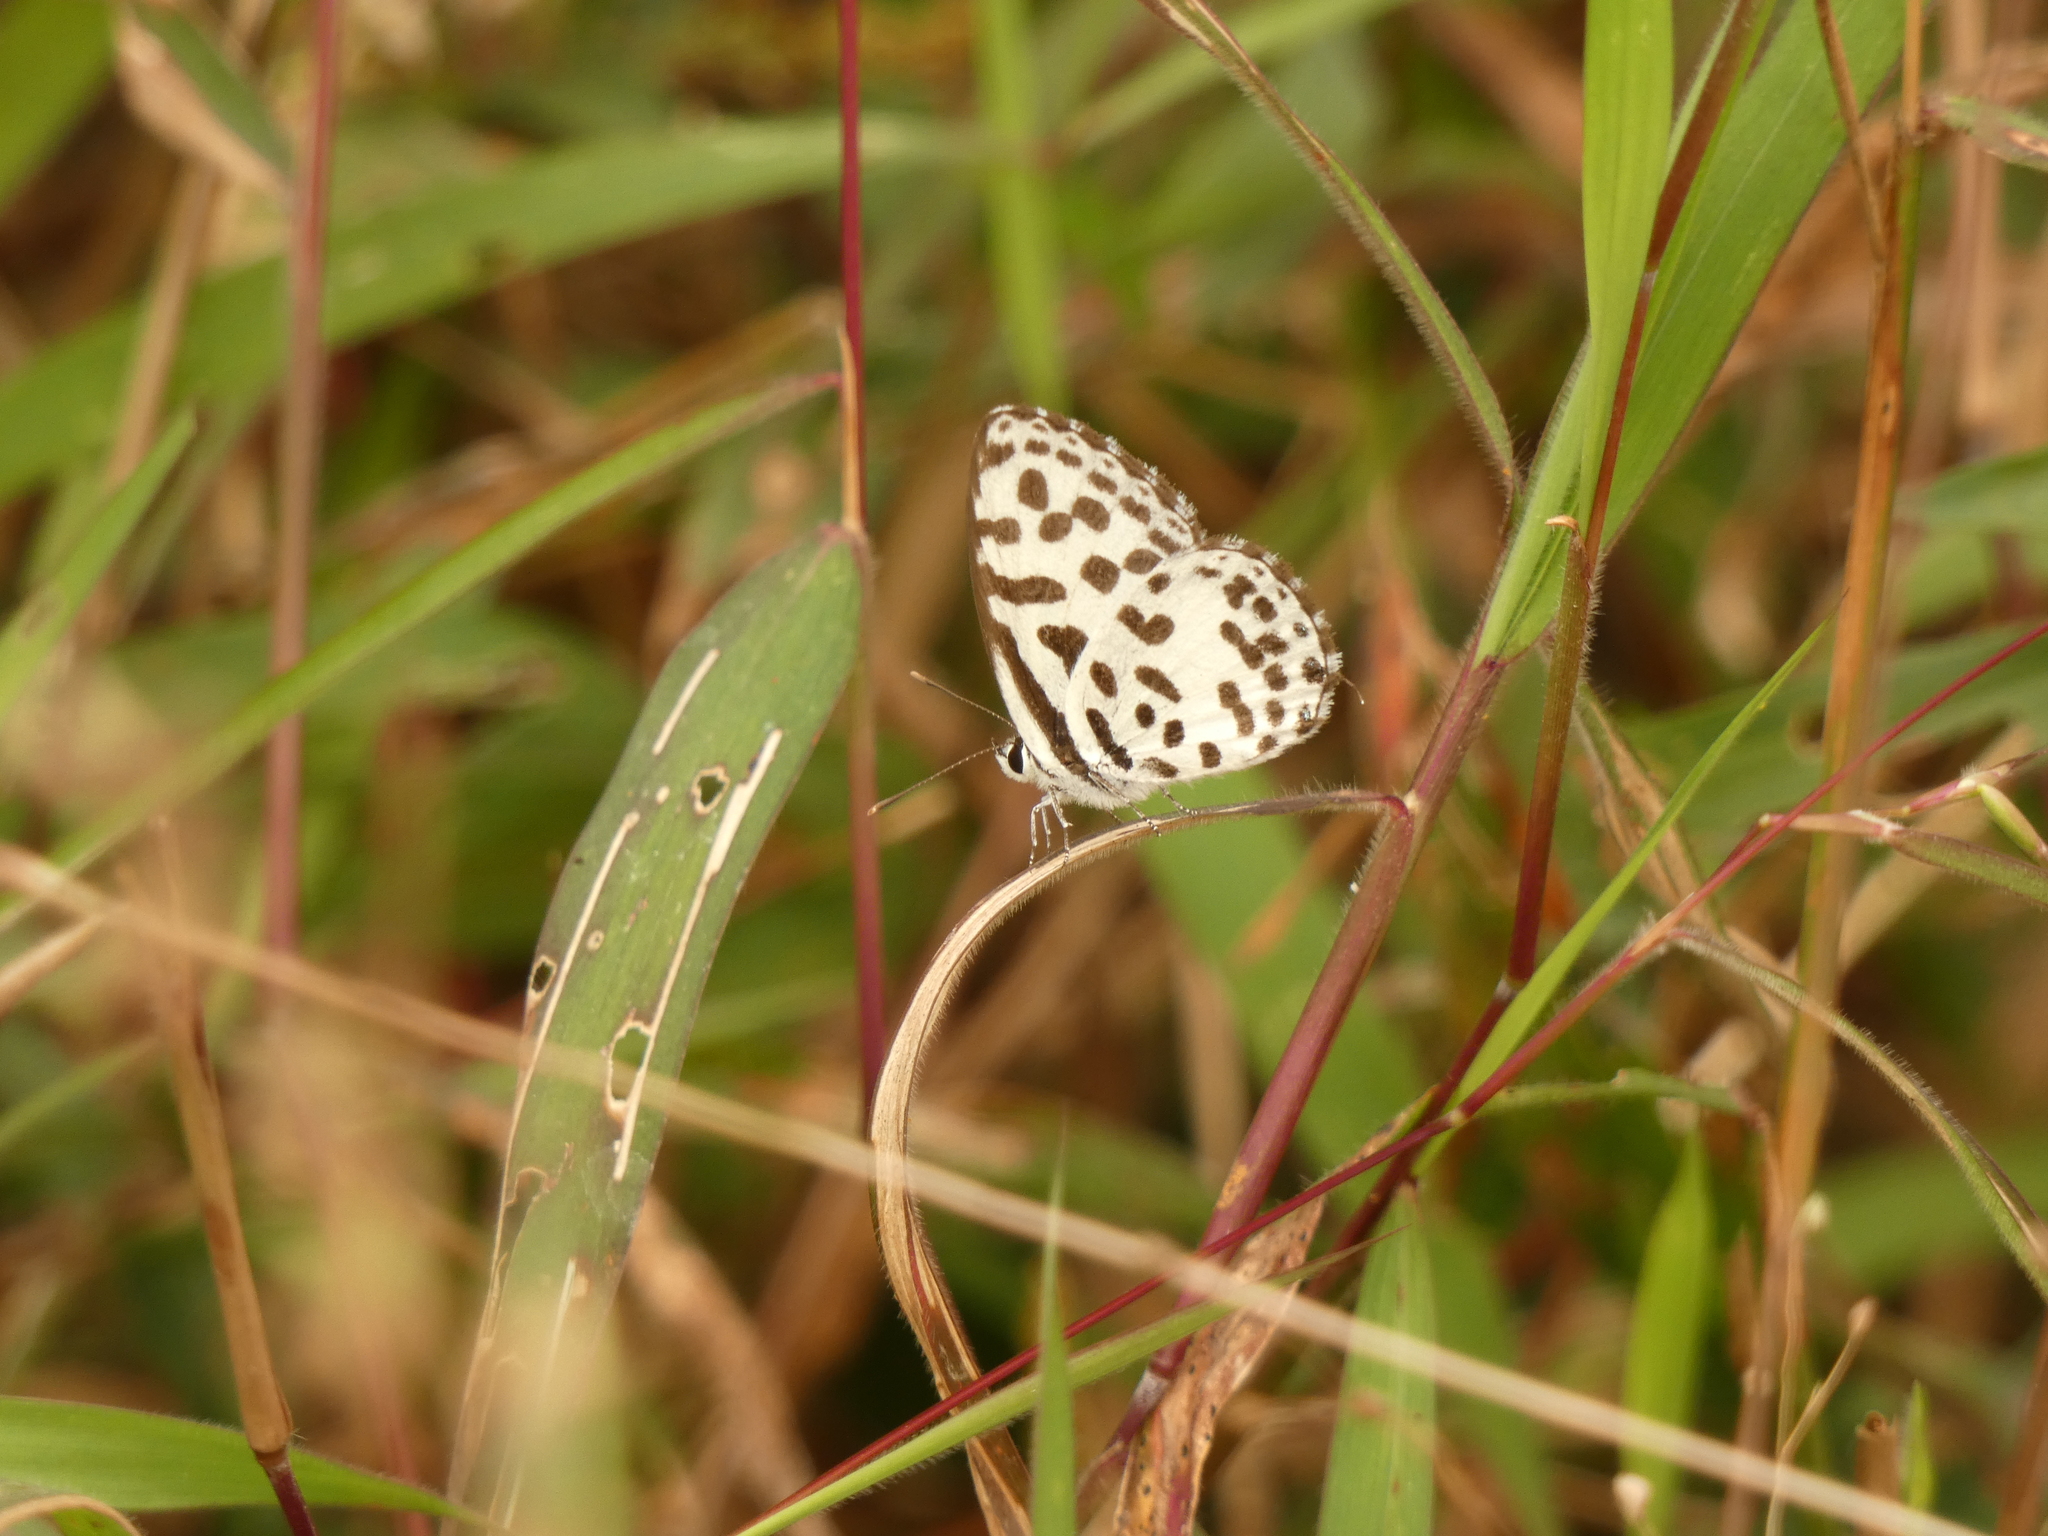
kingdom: Animalia
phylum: Arthropoda
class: Insecta
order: Lepidoptera
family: Lycaenidae
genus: Castalius
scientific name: Castalius rosimon
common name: Common pierrot
